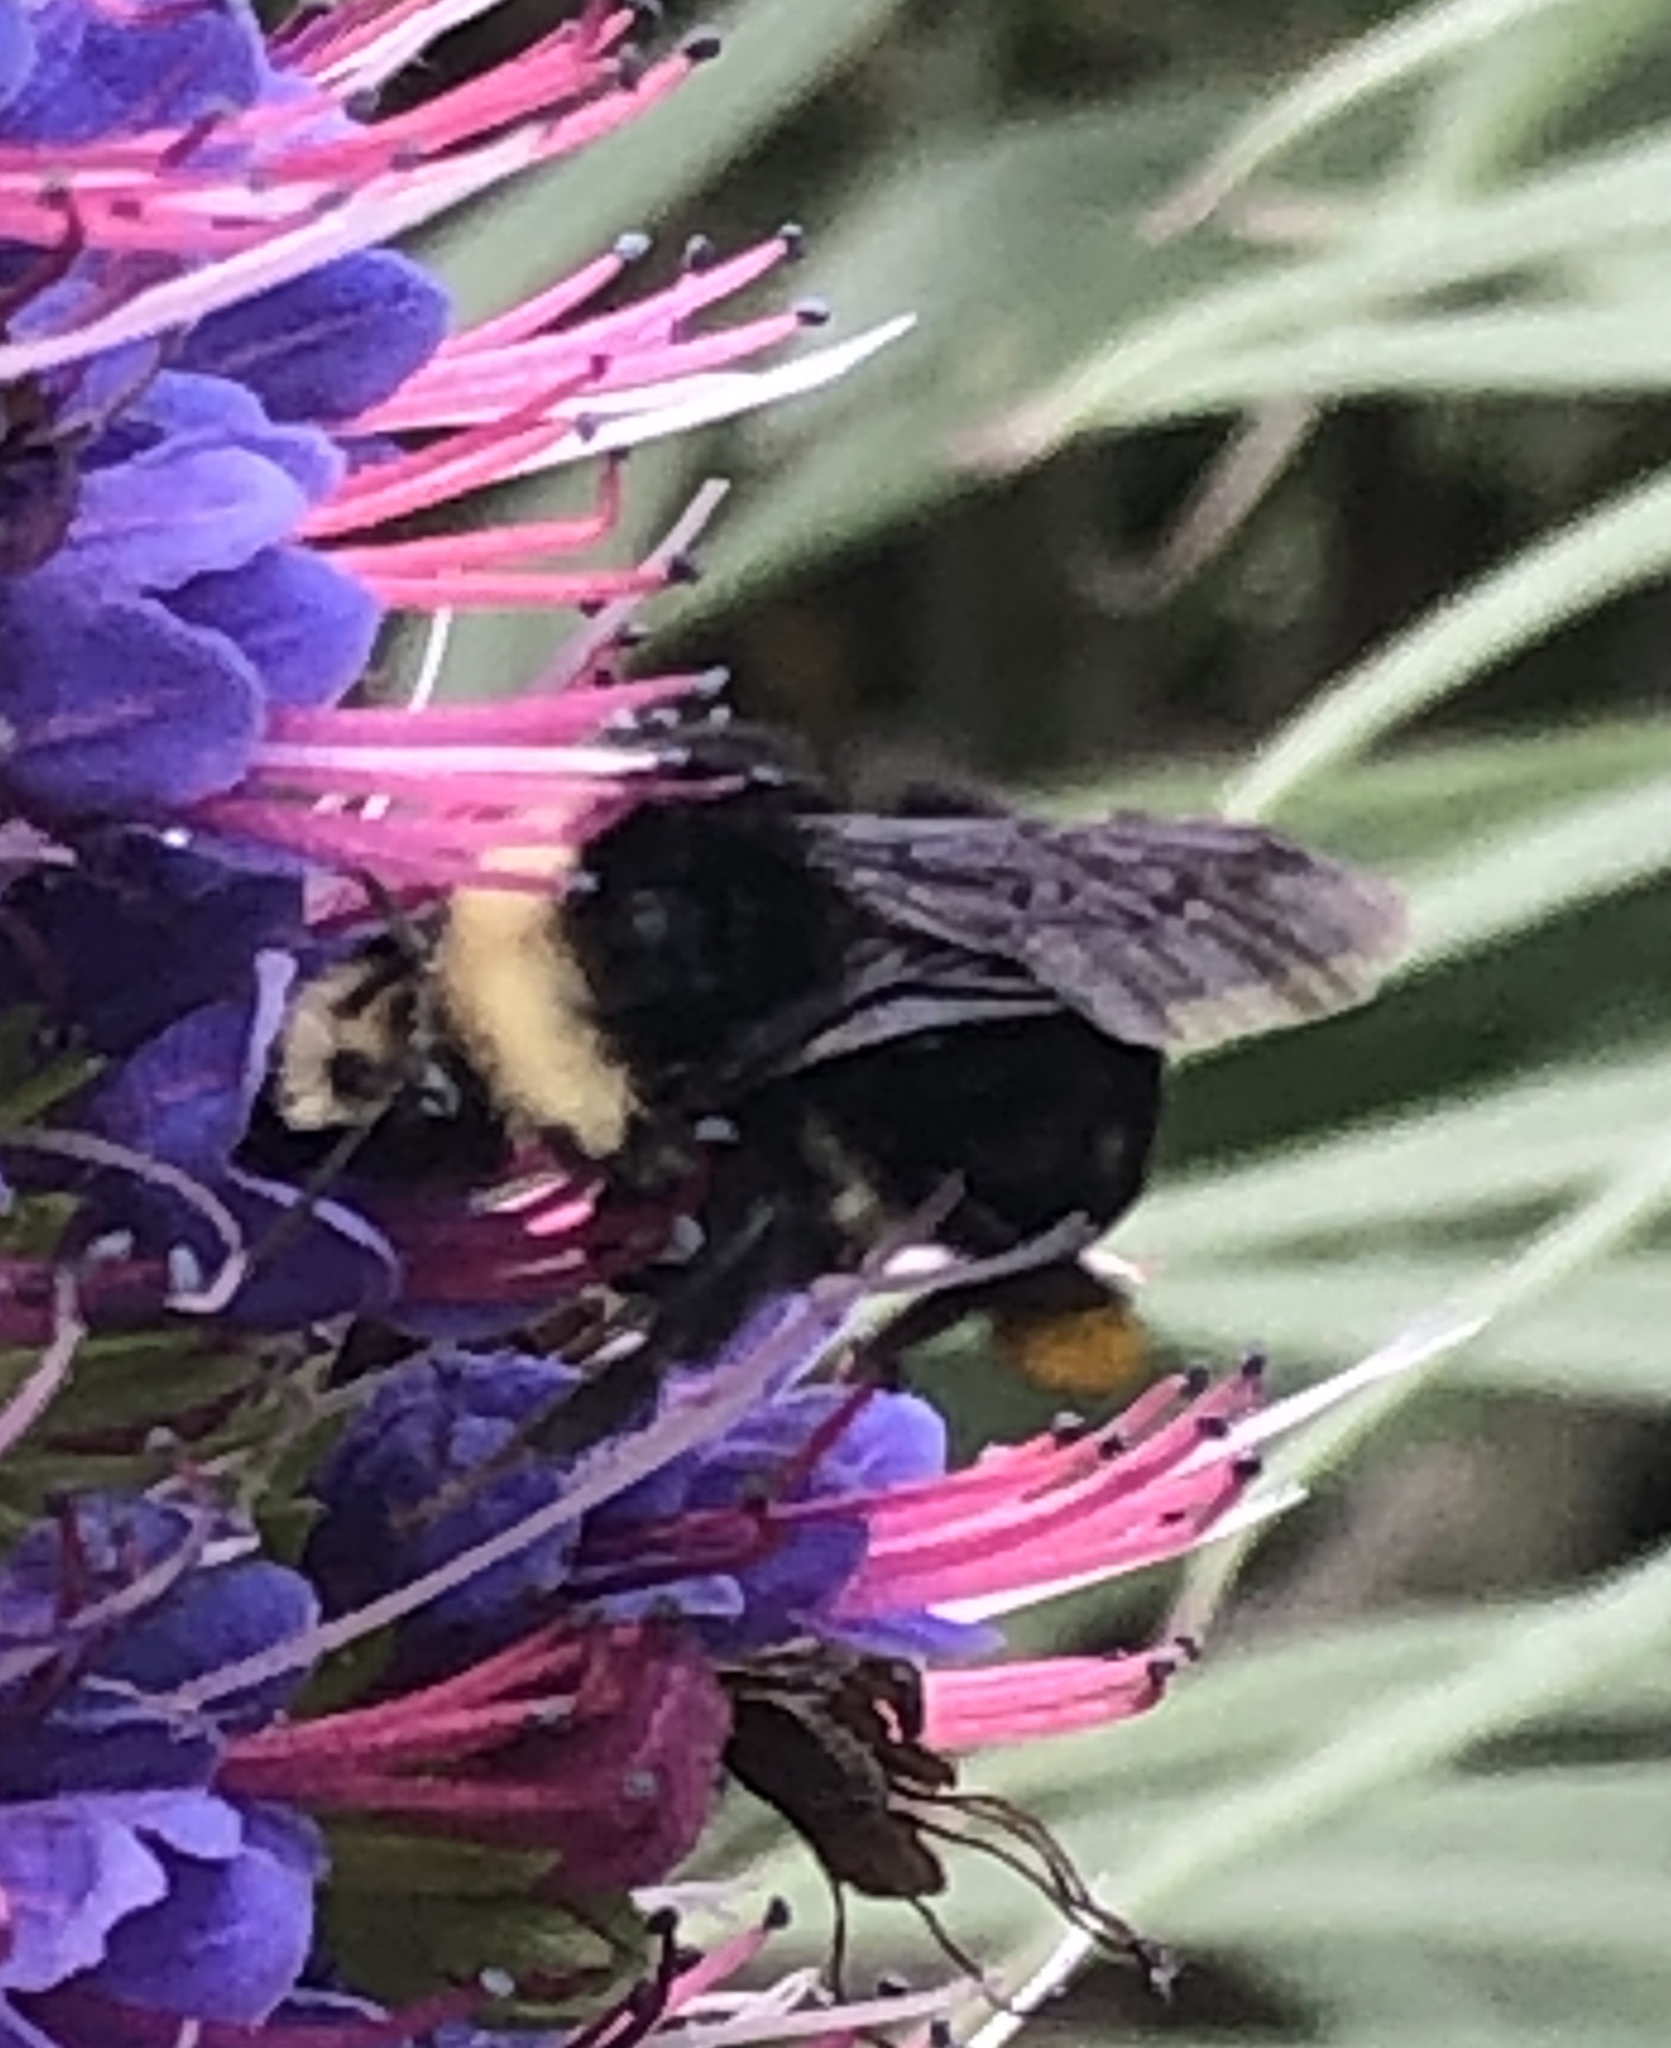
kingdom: Animalia
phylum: Arthropoda
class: Insecta
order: Hymenoptera
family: Apidae
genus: Bombus
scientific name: Bombus vosnesenskii
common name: Vosnesensky bumble bee
